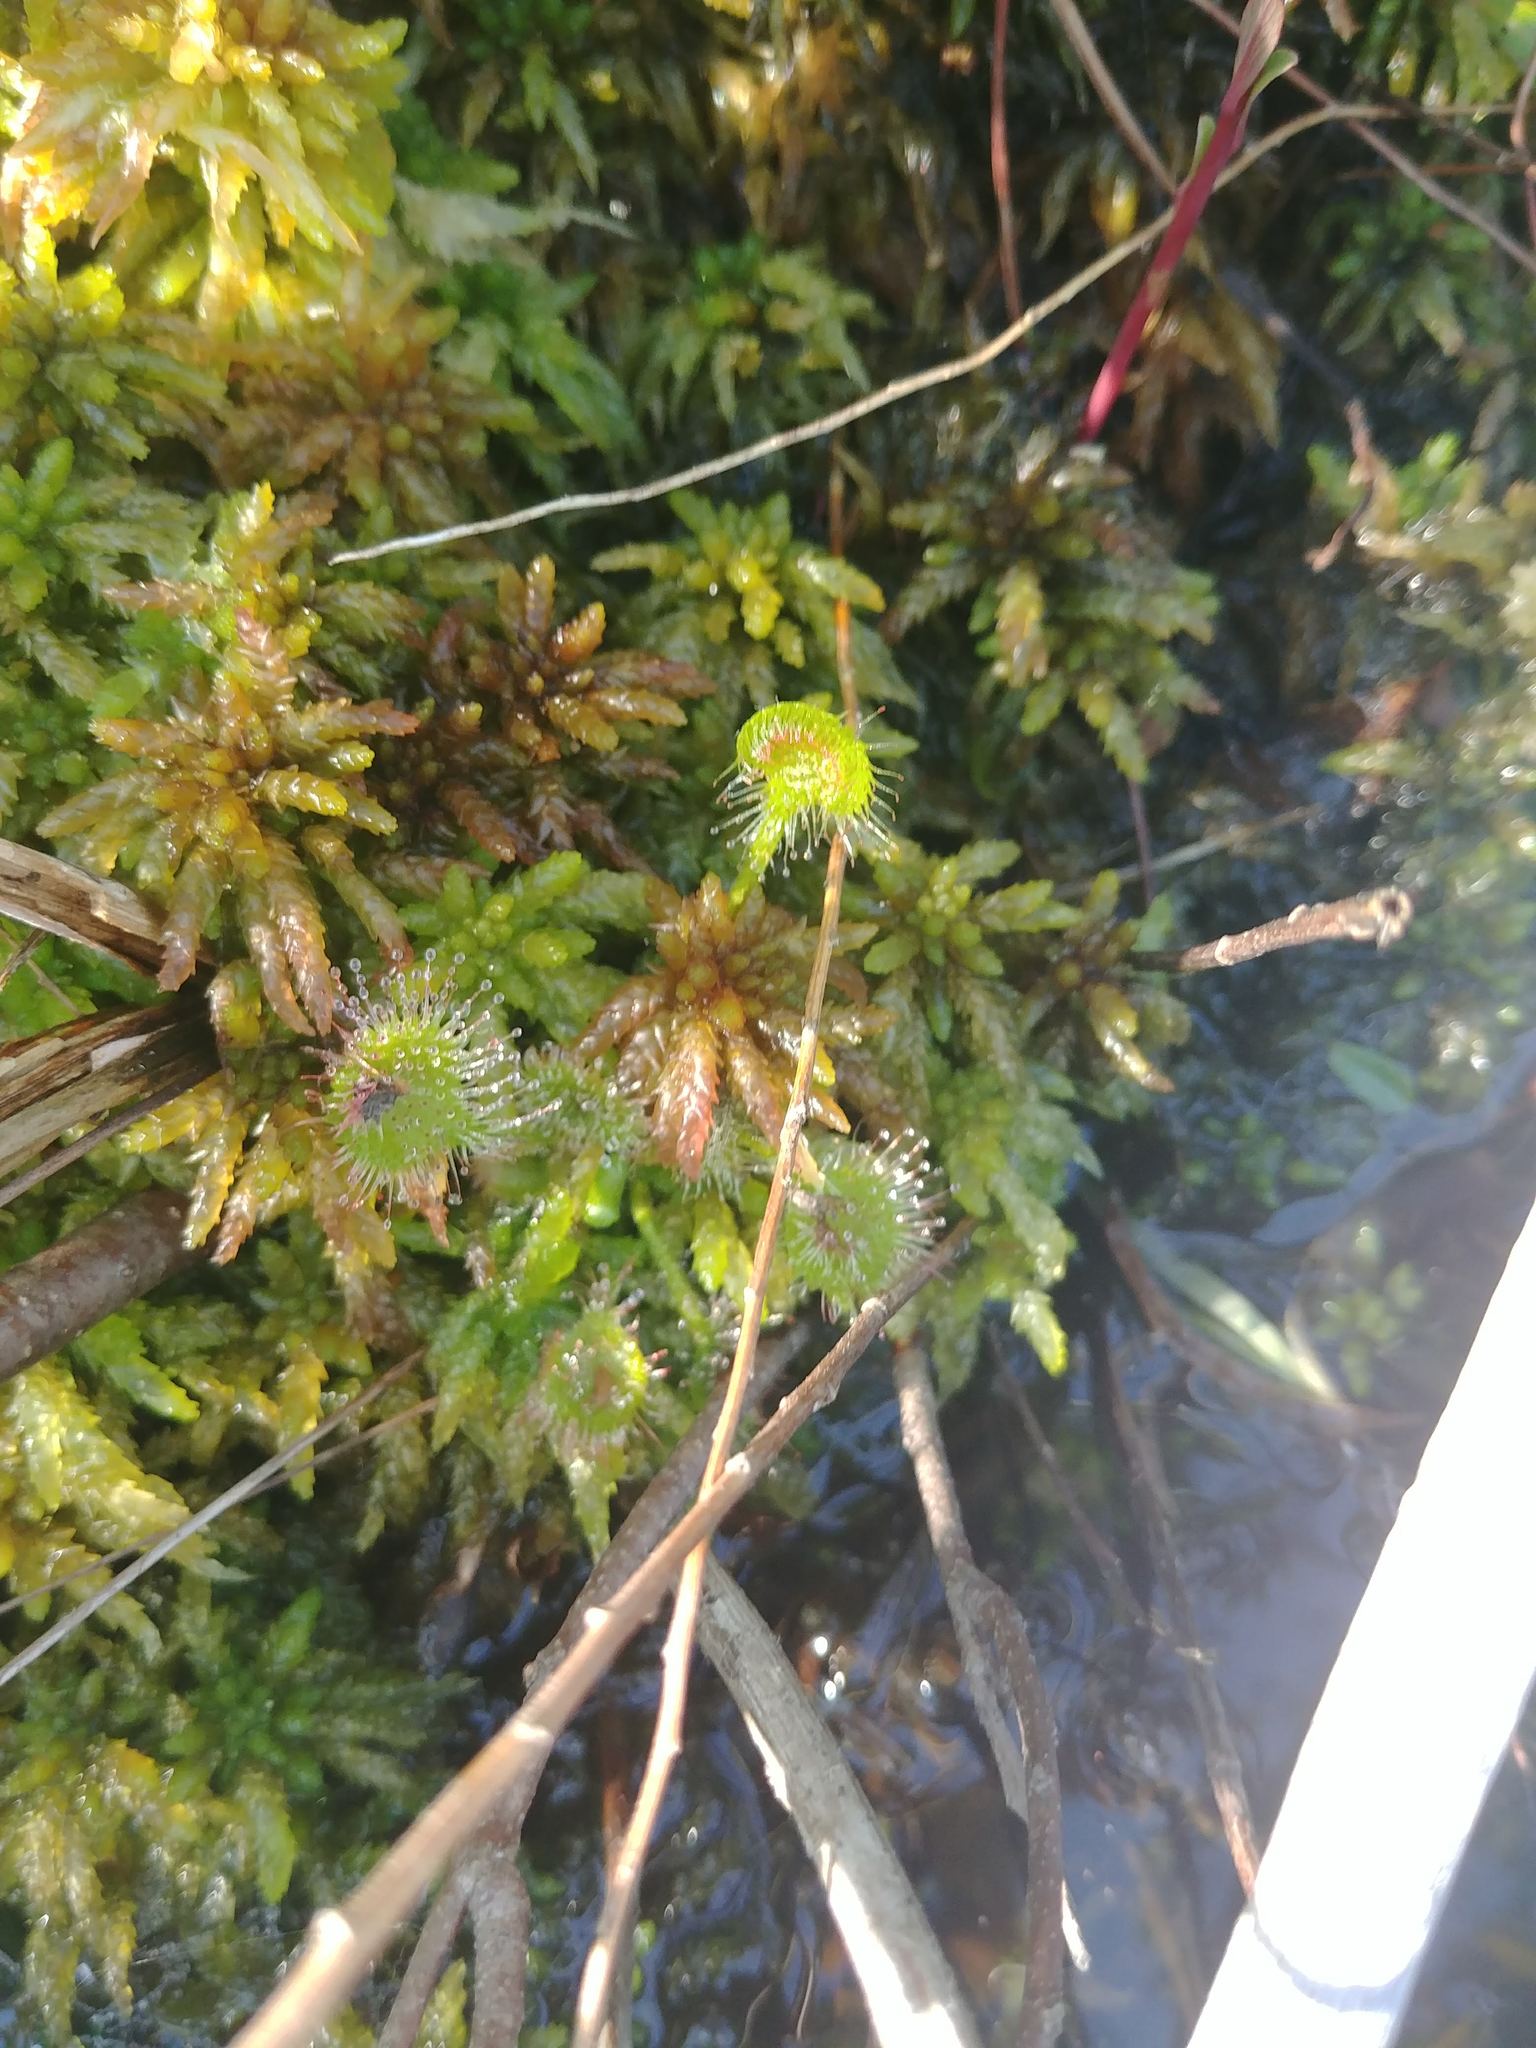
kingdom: Plantae
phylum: Tracheophyta
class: Magnoliopsida
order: Caryophyllales
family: Droseraceae
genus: Drosera
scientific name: Drosera rotundifolia
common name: Round-leaved sundew
